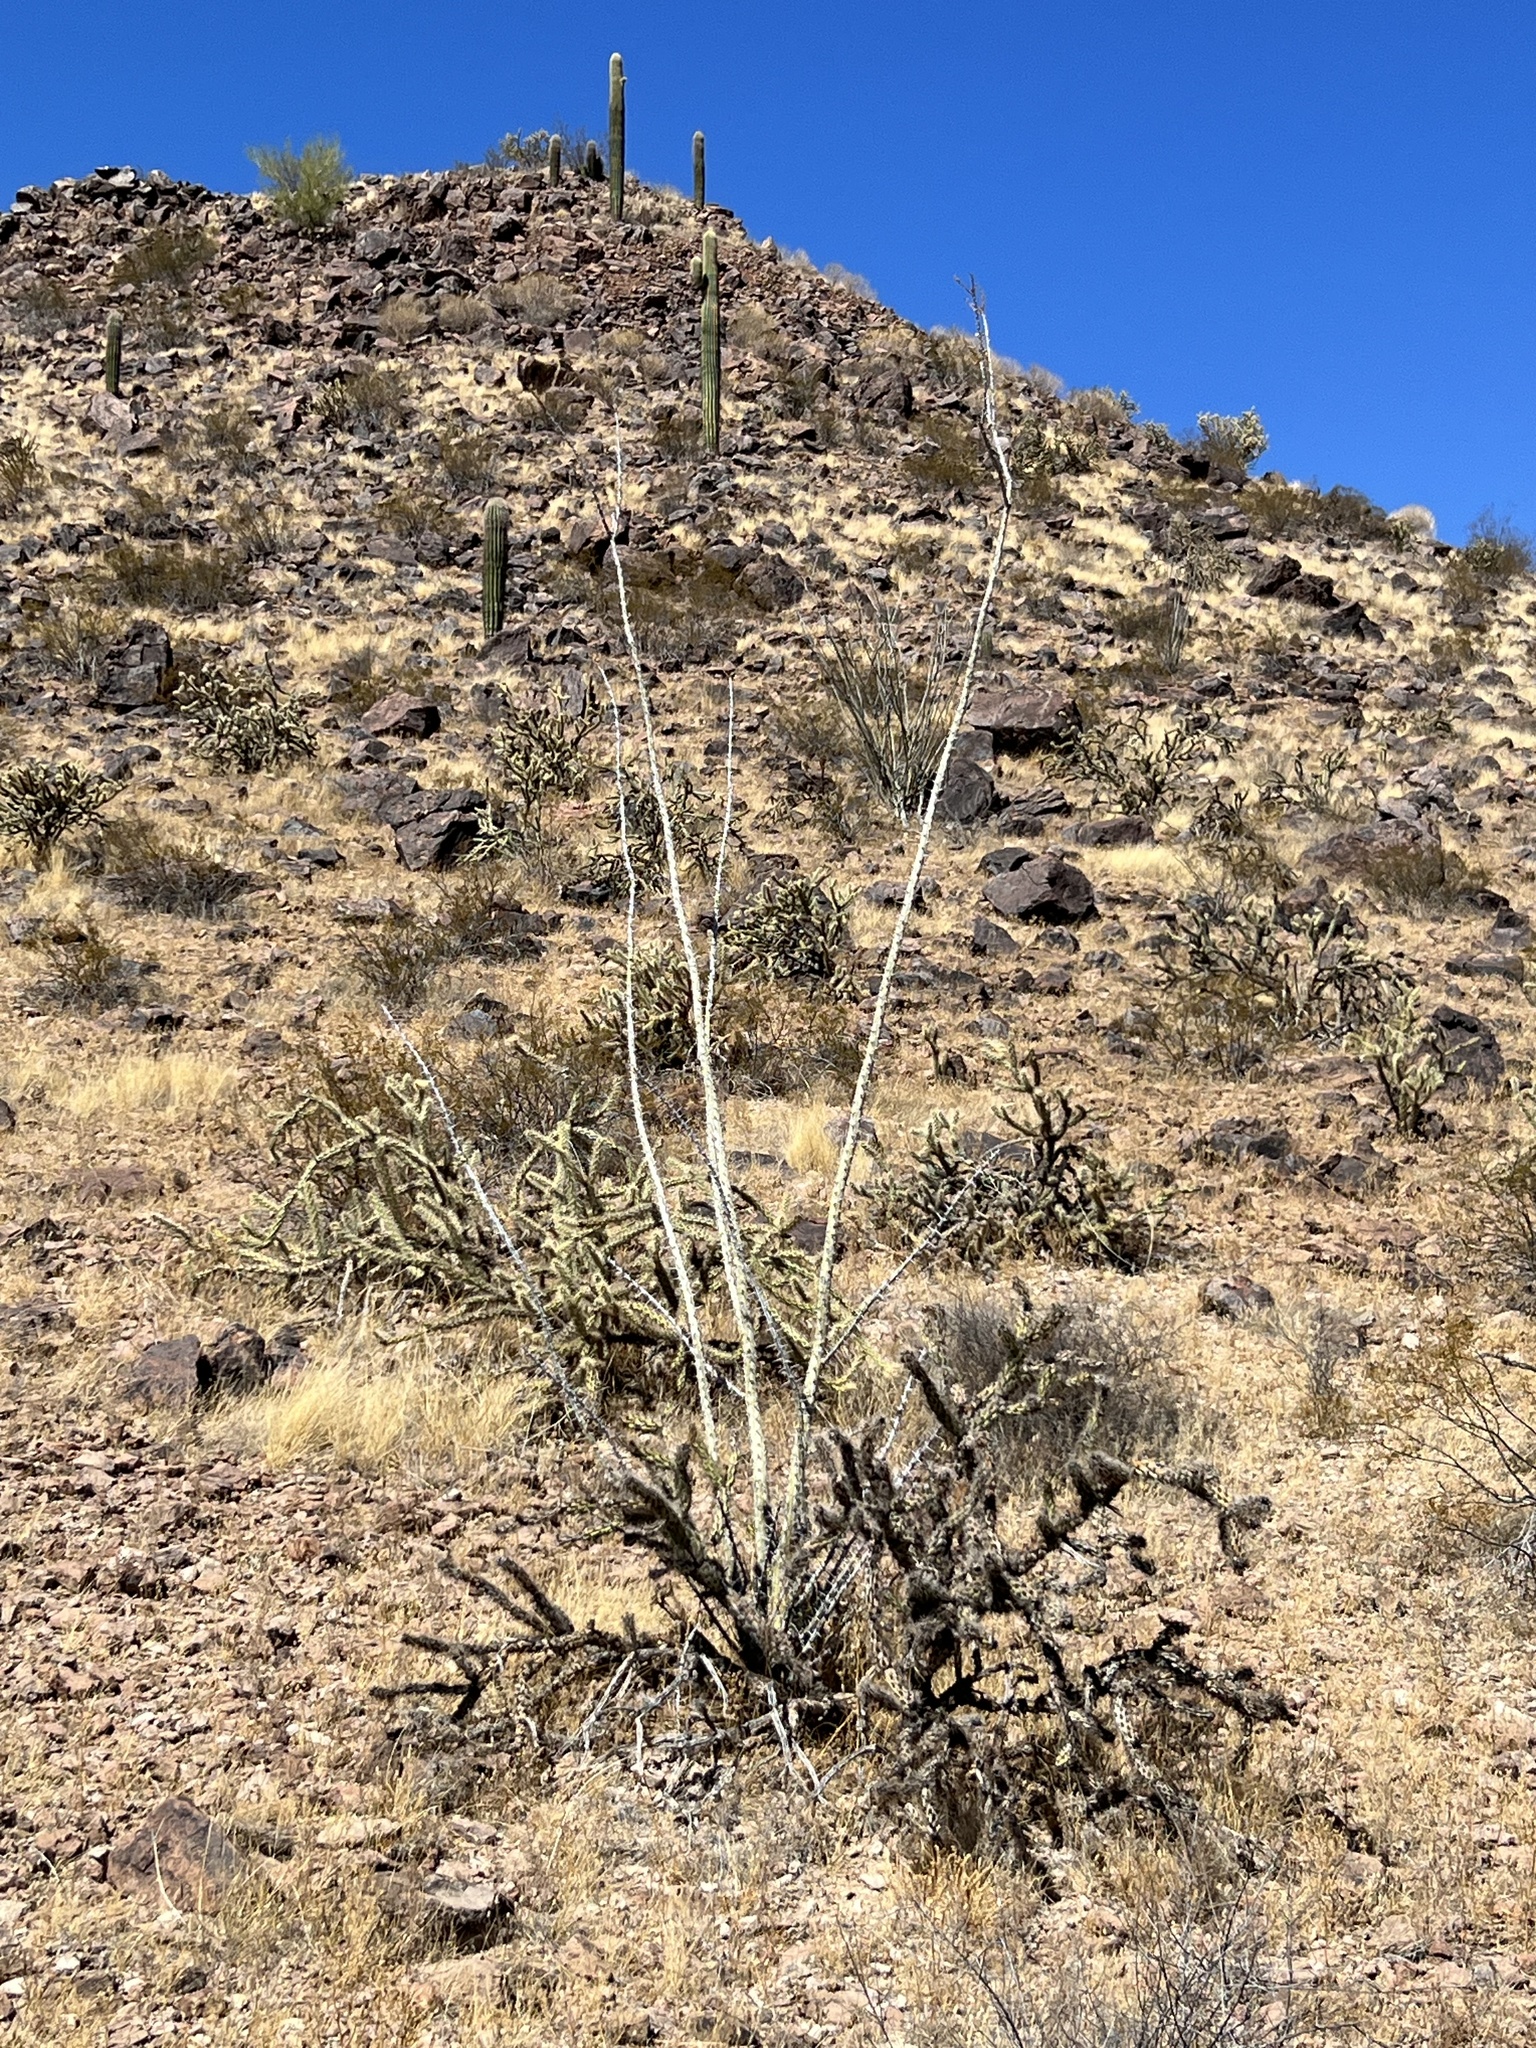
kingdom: Plantae
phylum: Tracheophyta
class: Magnoliopsida
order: Ericales
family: Fouquieriaceae
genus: Fouquieria
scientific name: Fouquieria splendens
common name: Vine-cactus
